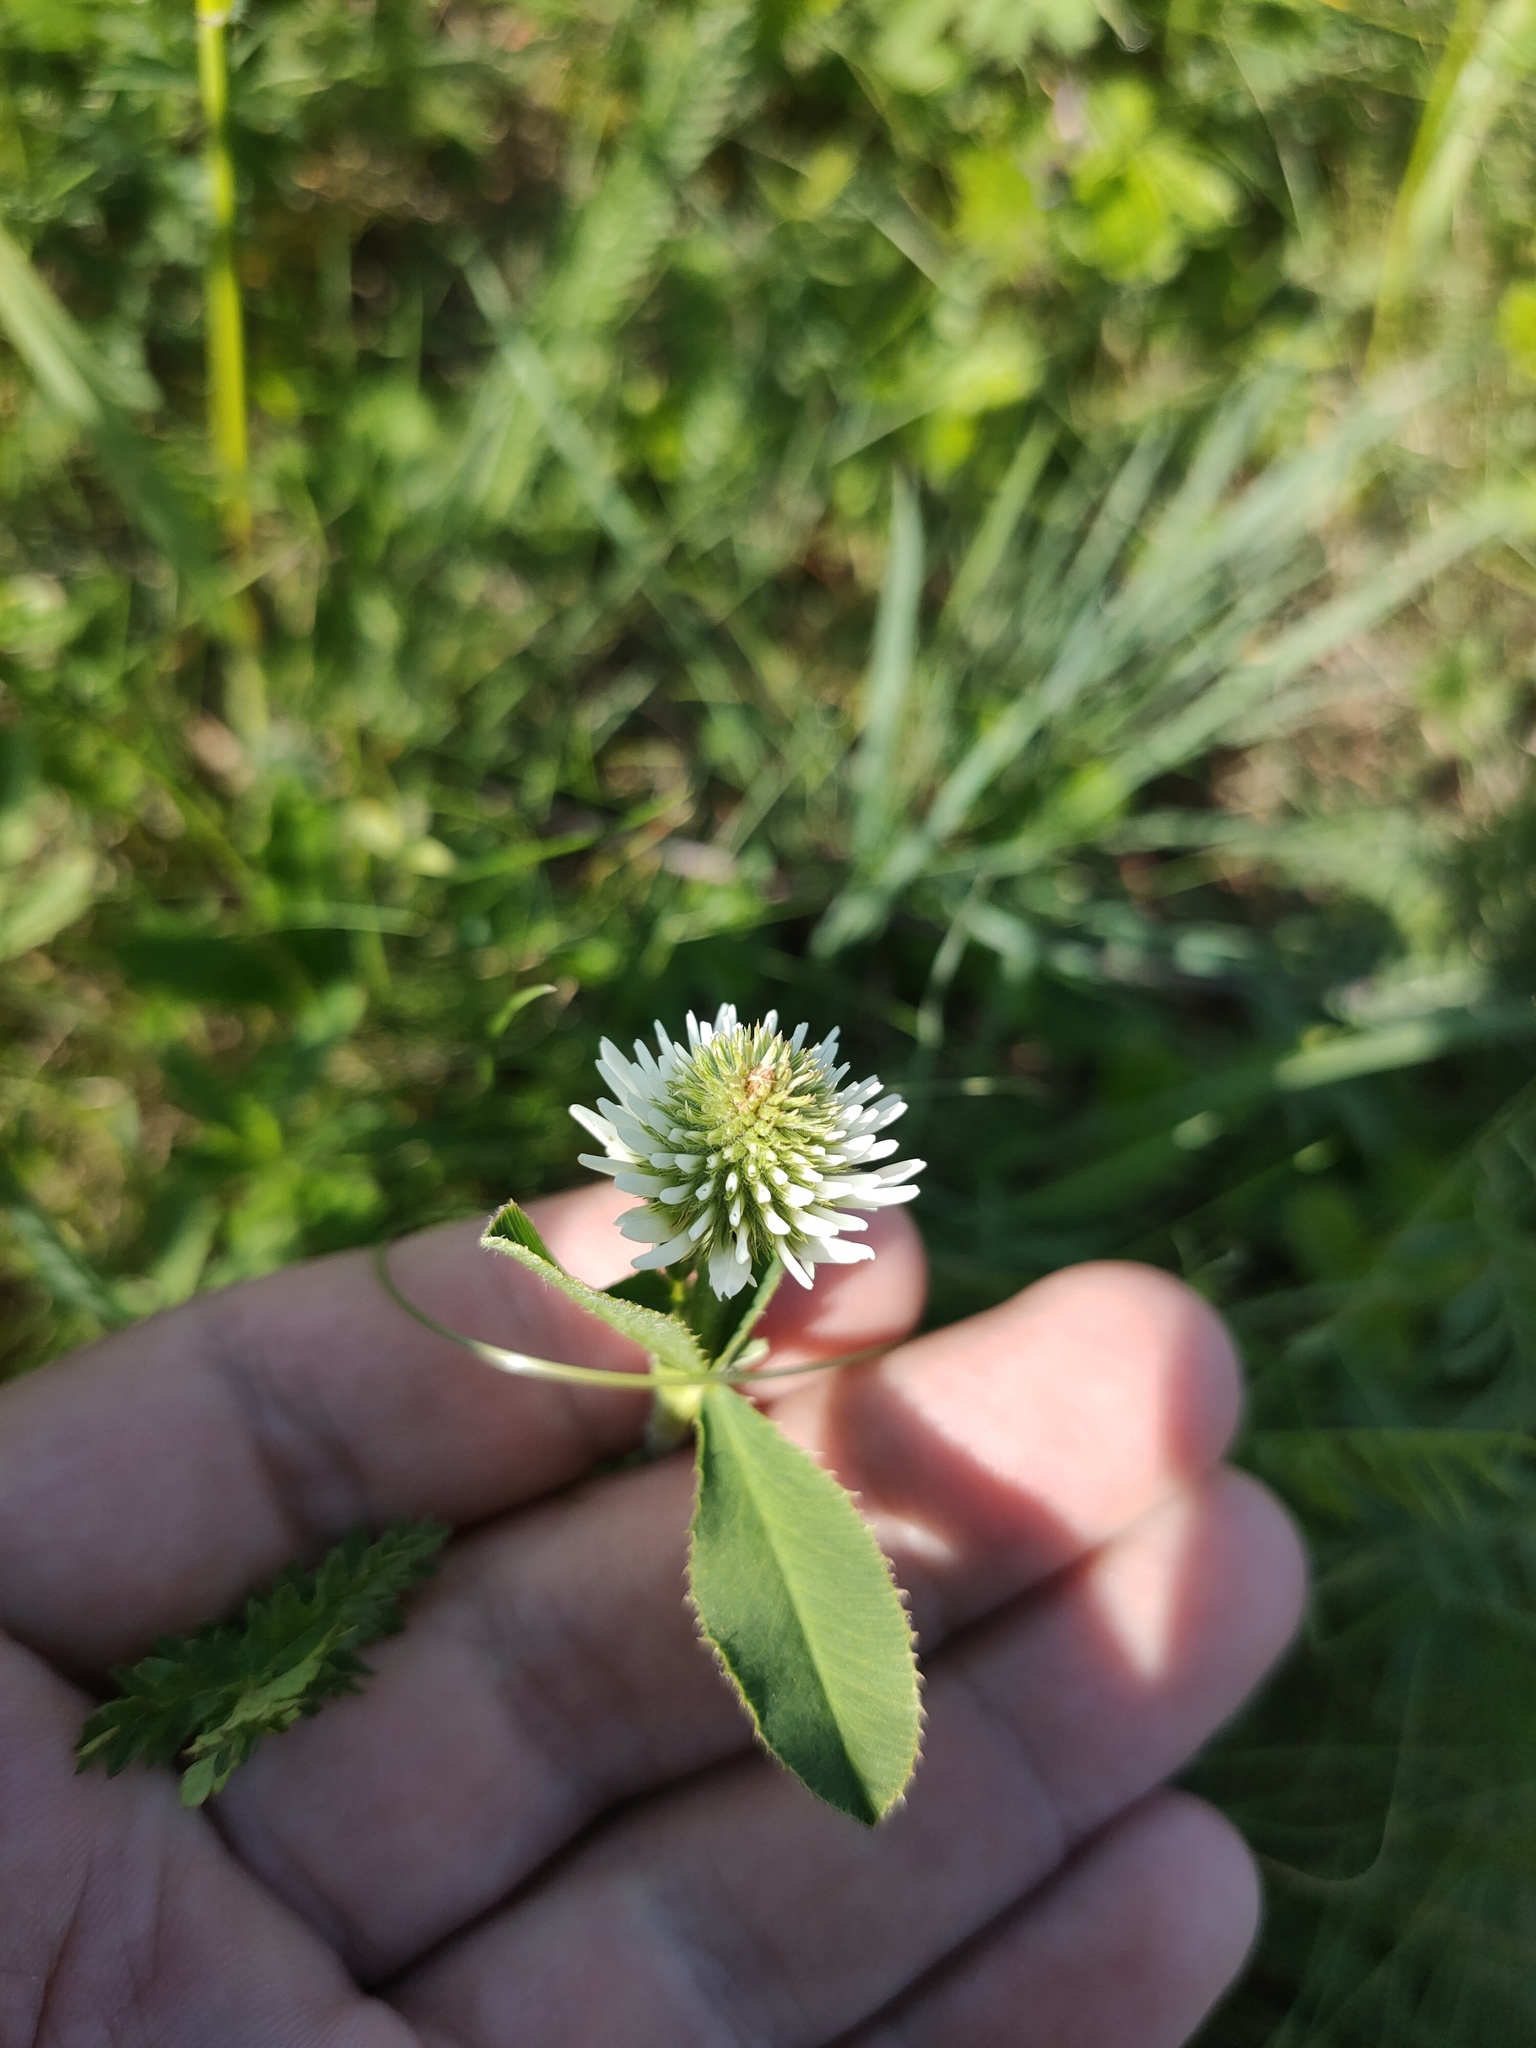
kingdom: Plantae
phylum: Tracheophyta
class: Magnoliopsida
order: Fabales
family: Fabaceae
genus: Trifolium
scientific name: Trifolium montanum
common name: Mountain clover
